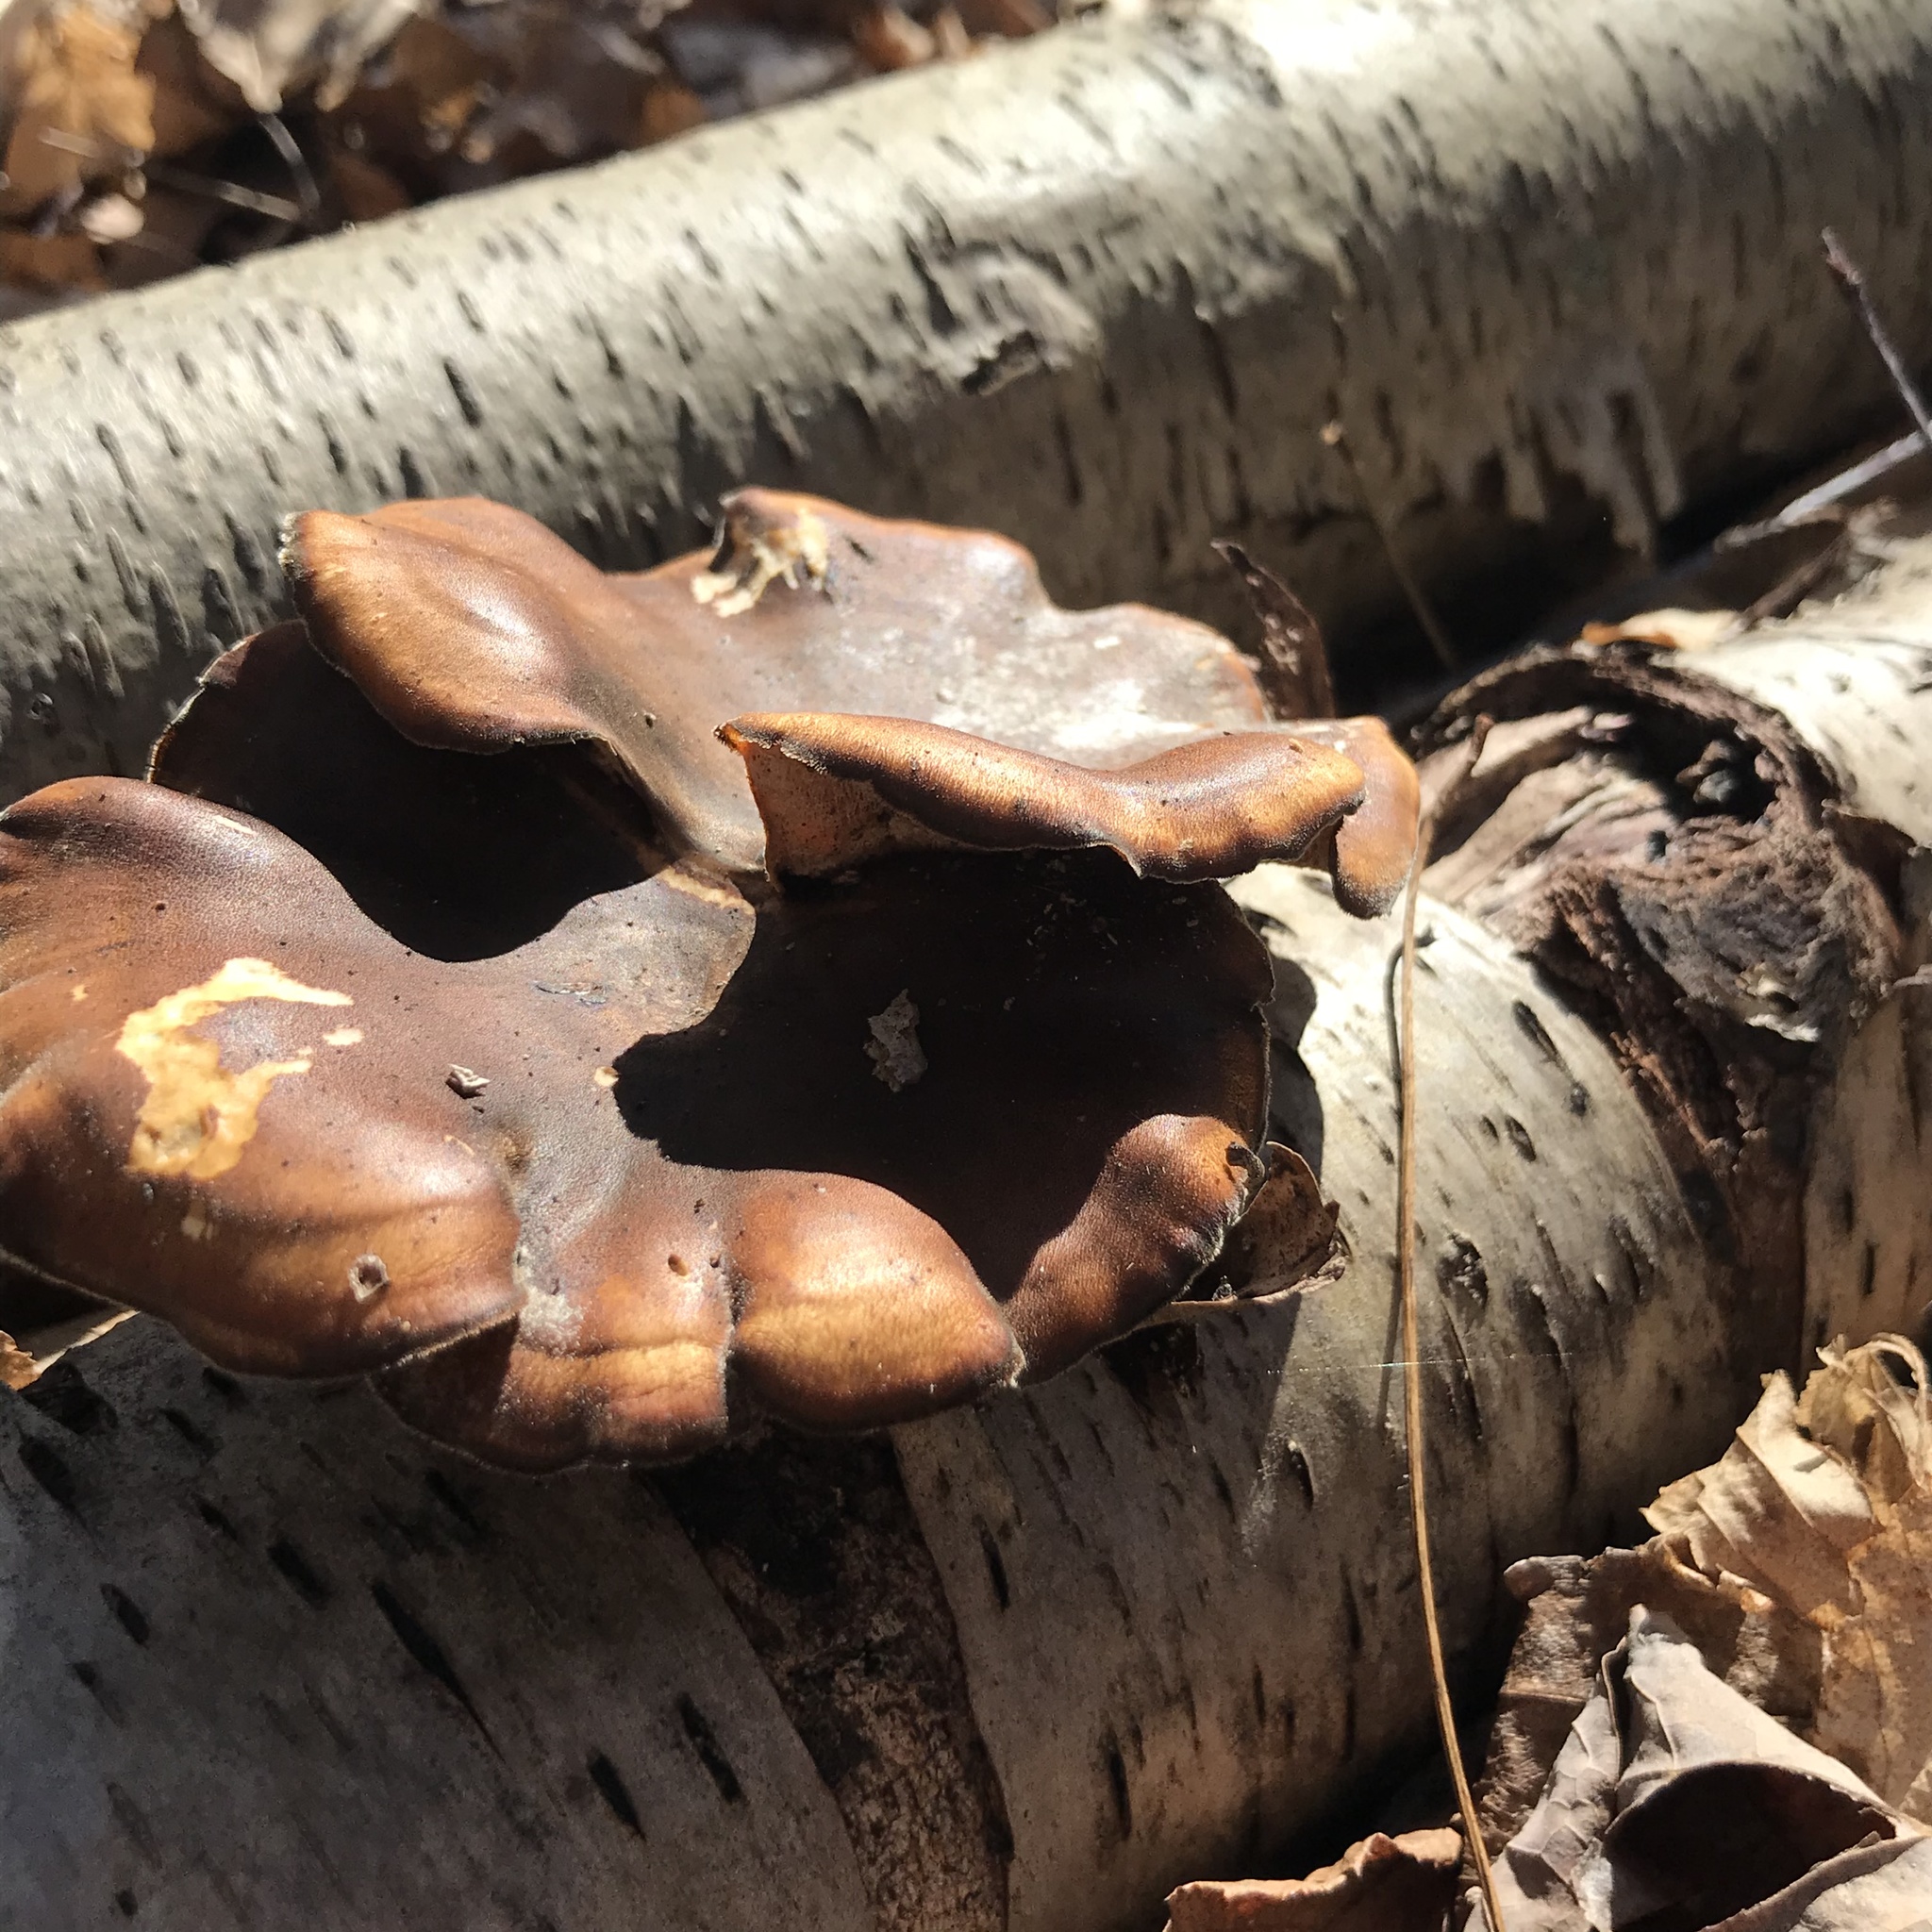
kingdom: Fungi
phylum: Basidiomycota
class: Agaricomycetes
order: Polyporales
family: Polyporaceae
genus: Picipes
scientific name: Picipes badius
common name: Bay polypore
